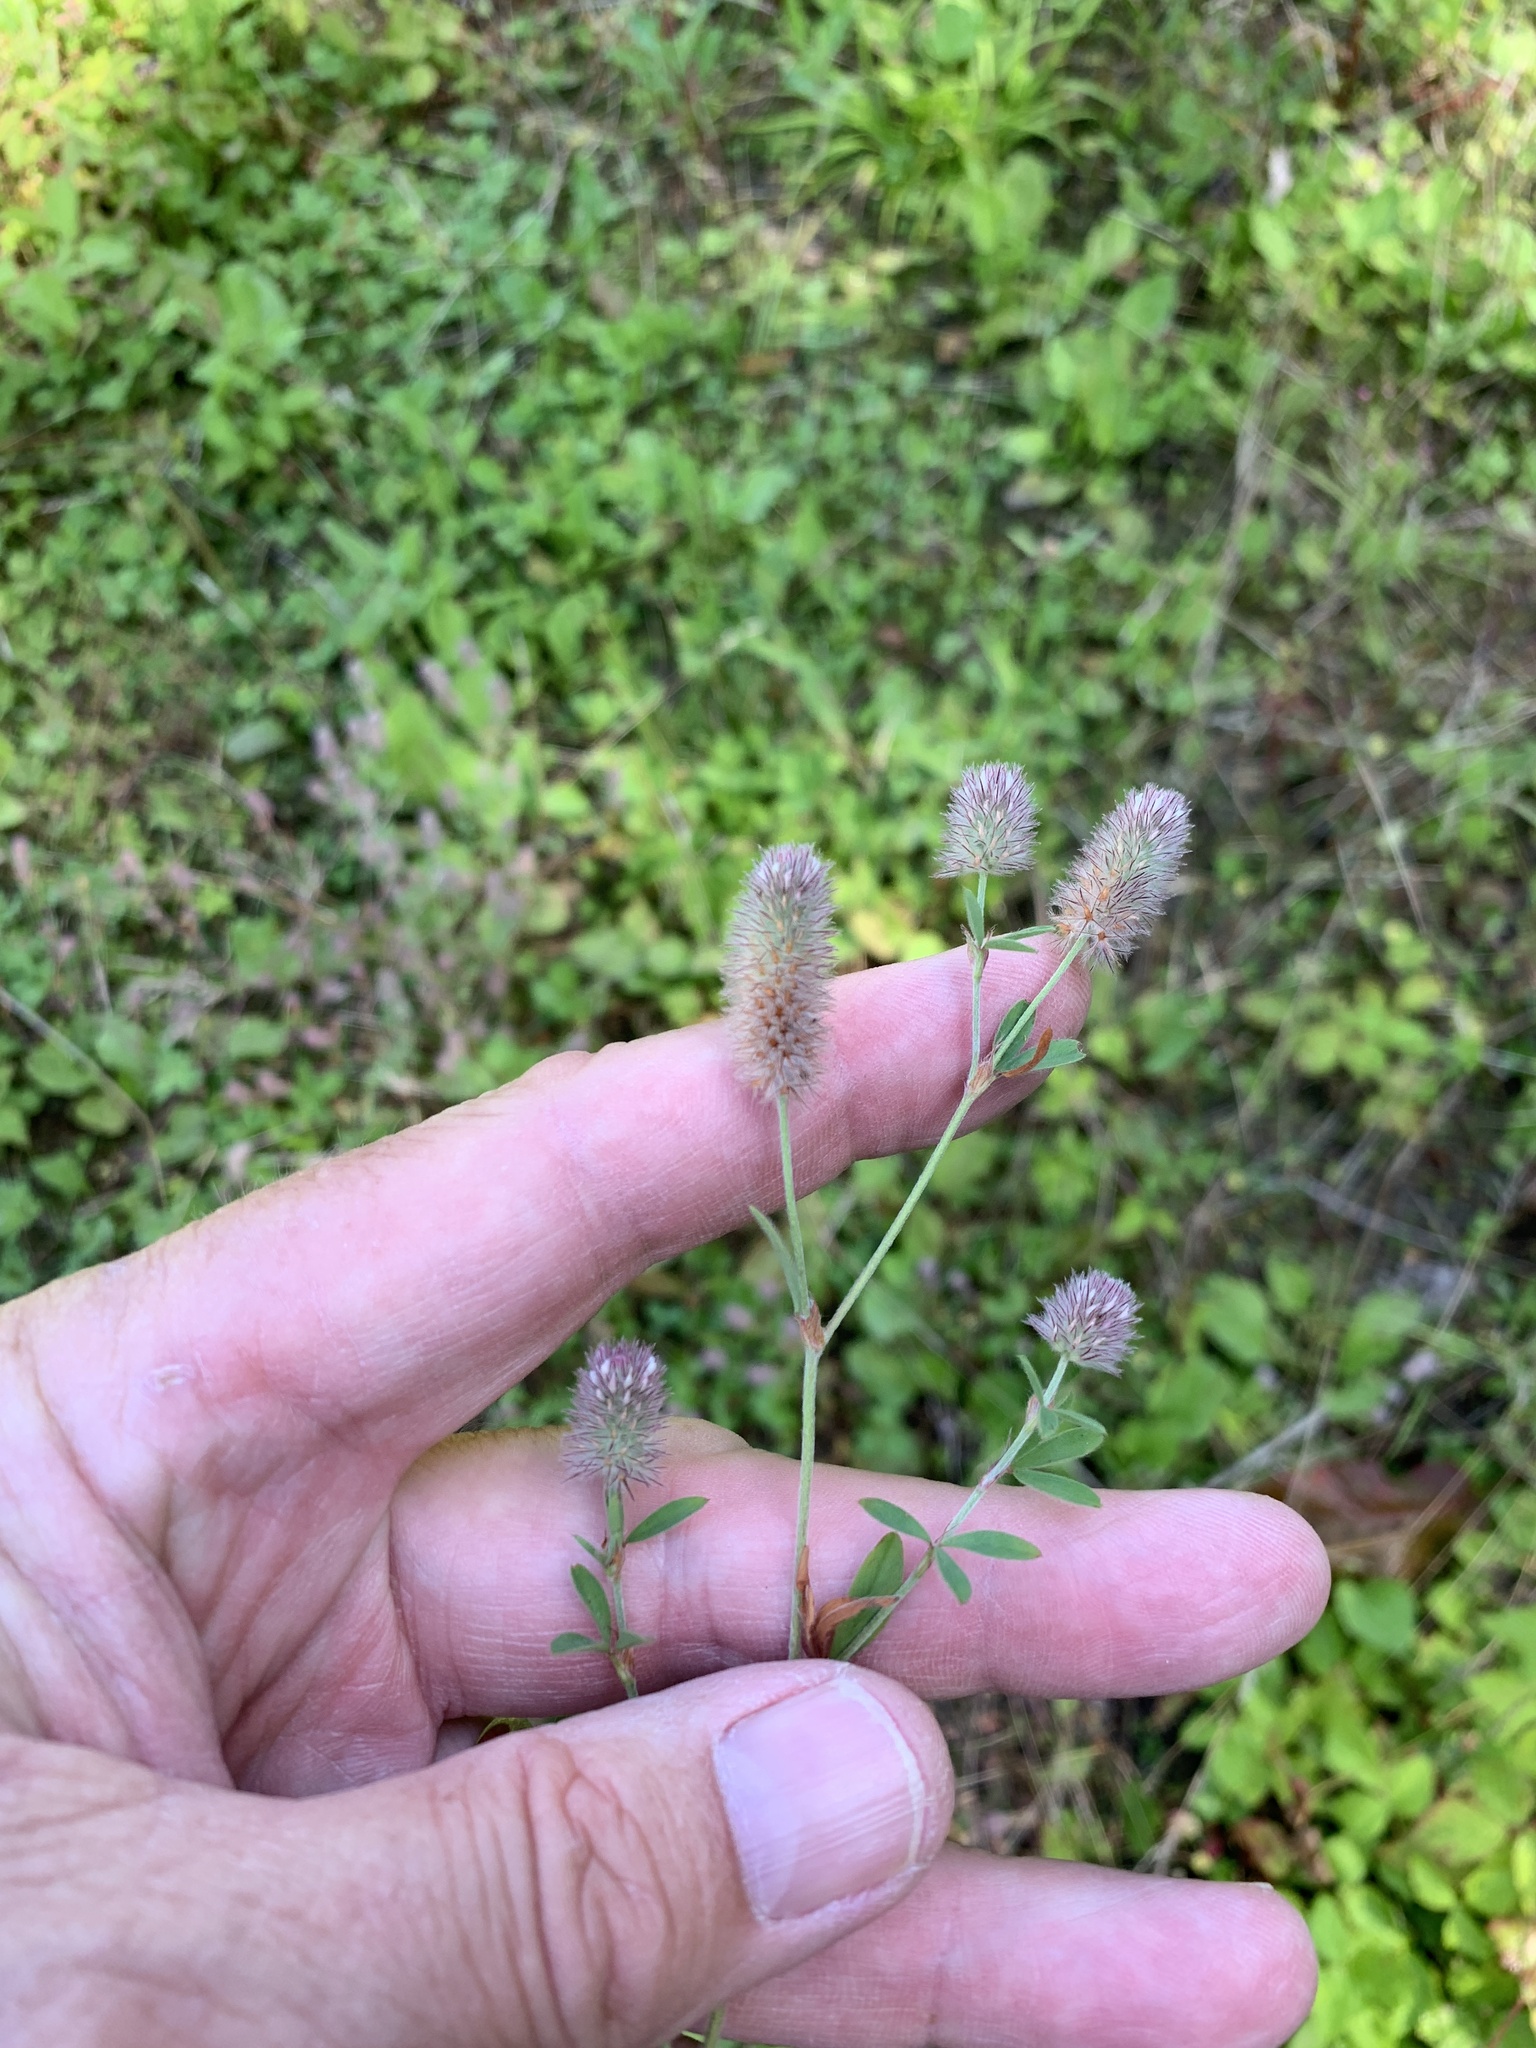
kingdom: Plantae
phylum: Tracheophyta
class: Magnoliopsida
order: Fabales
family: Fabaceae
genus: Trifolium
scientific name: Trifolium arvense
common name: Hare's-foot clover
